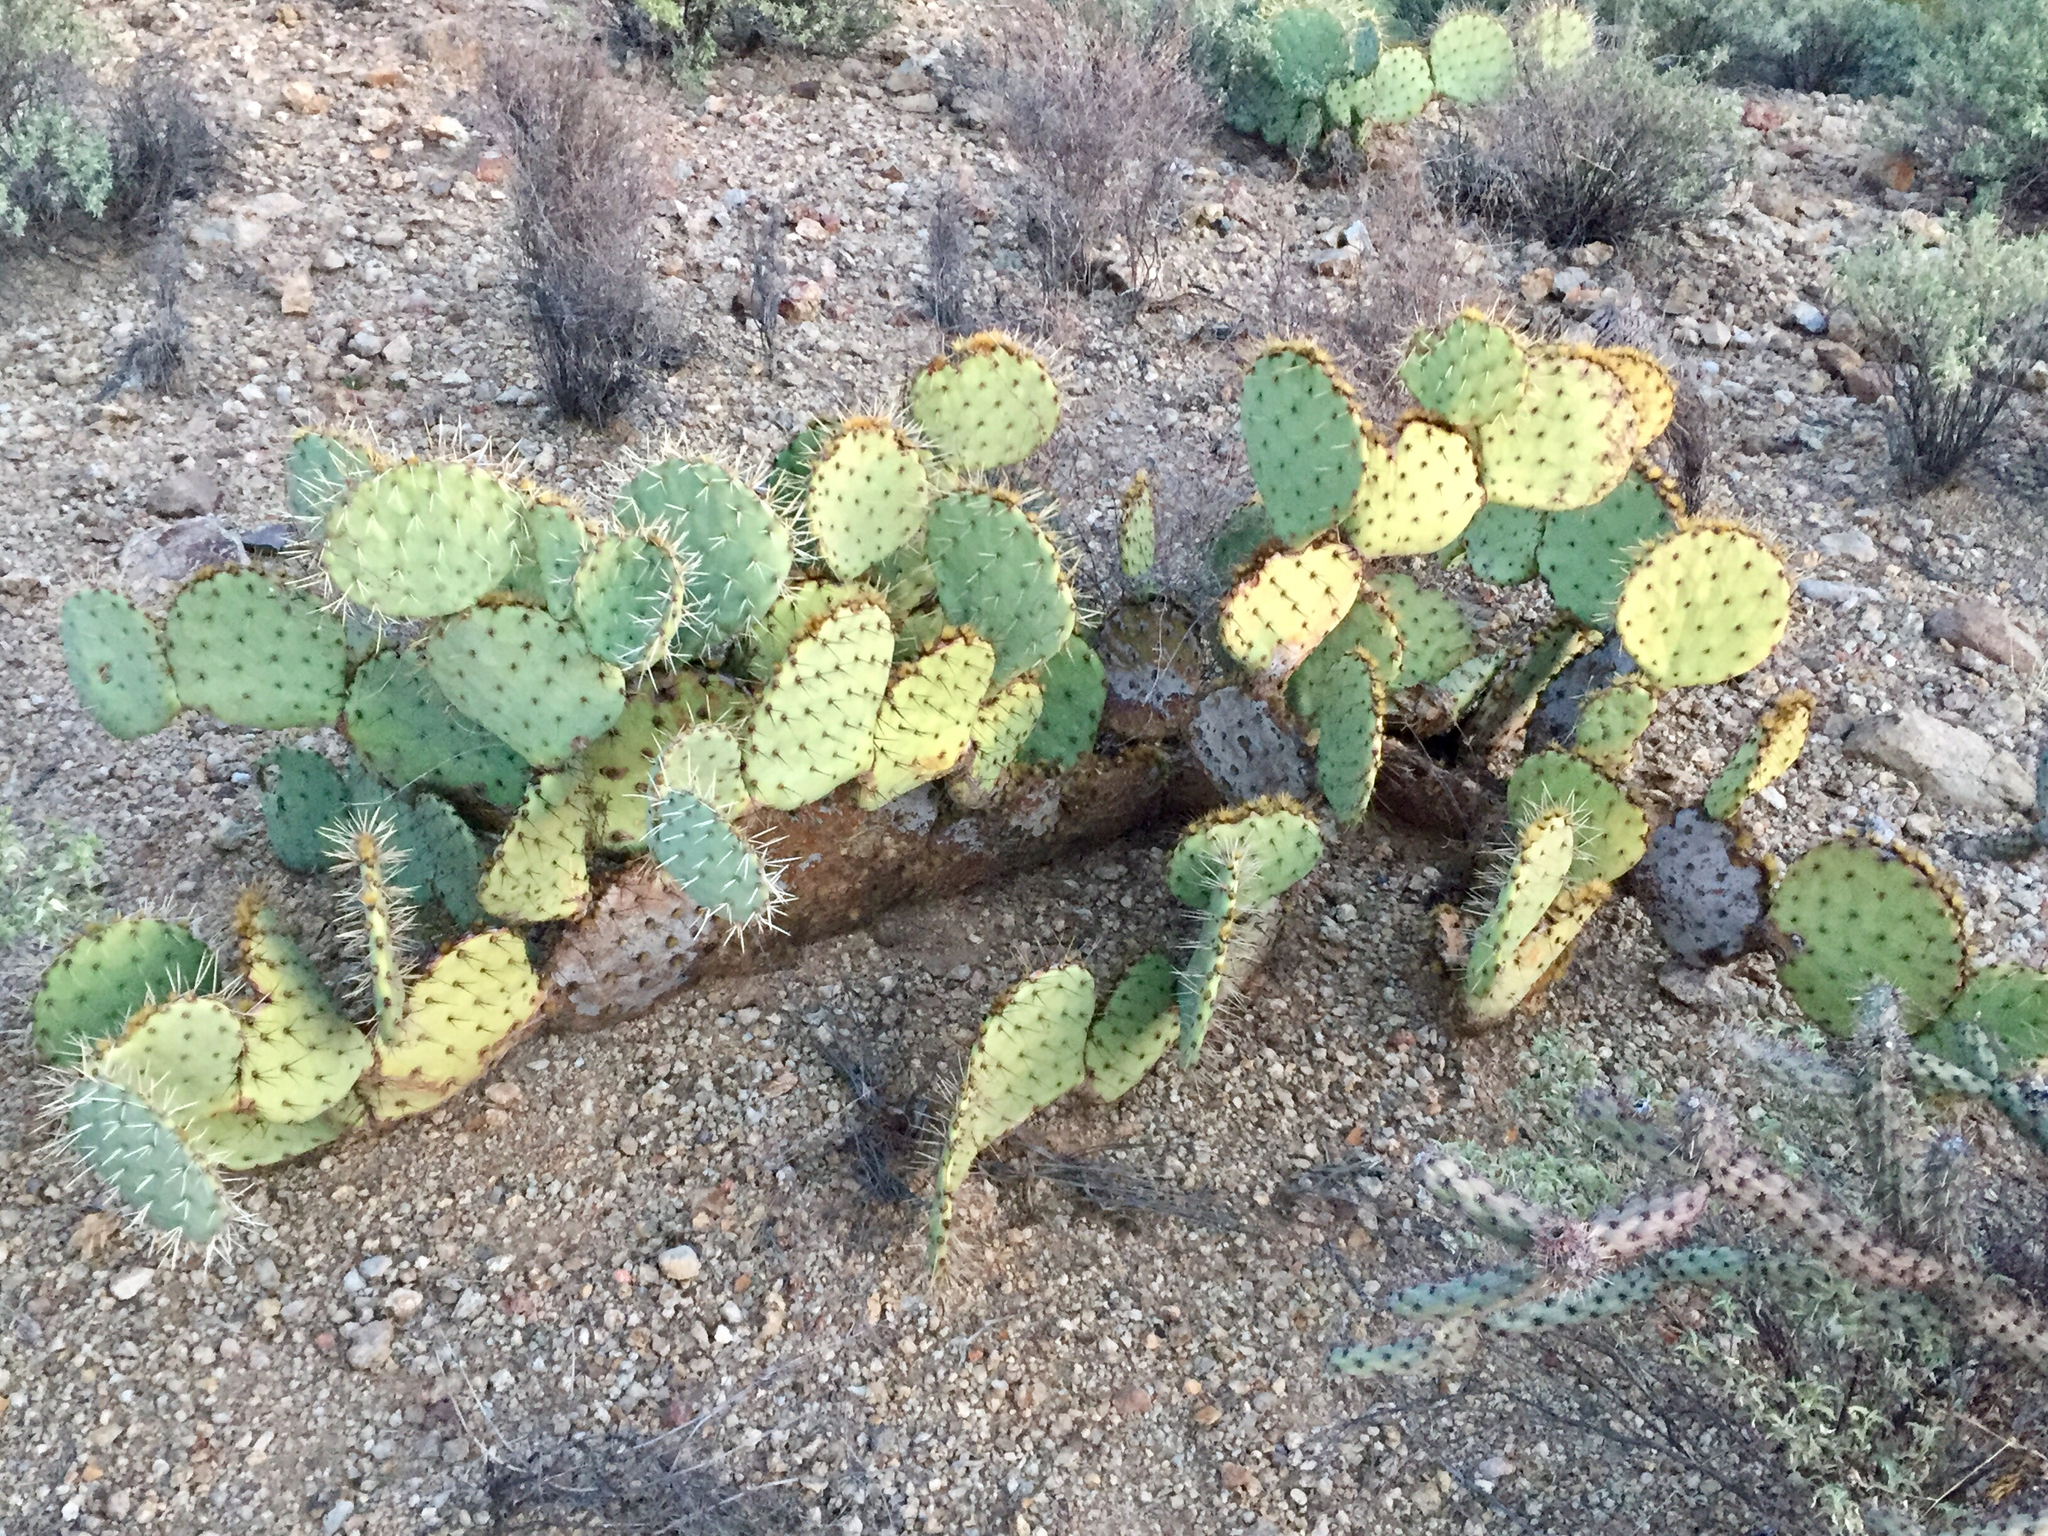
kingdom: Plantae
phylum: Tracheophyta
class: Magnoliopsida
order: Caryophyllales
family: Cactaceae
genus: Opuntia
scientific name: Opuntia phaeacantha
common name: New mexico prickly-pear
